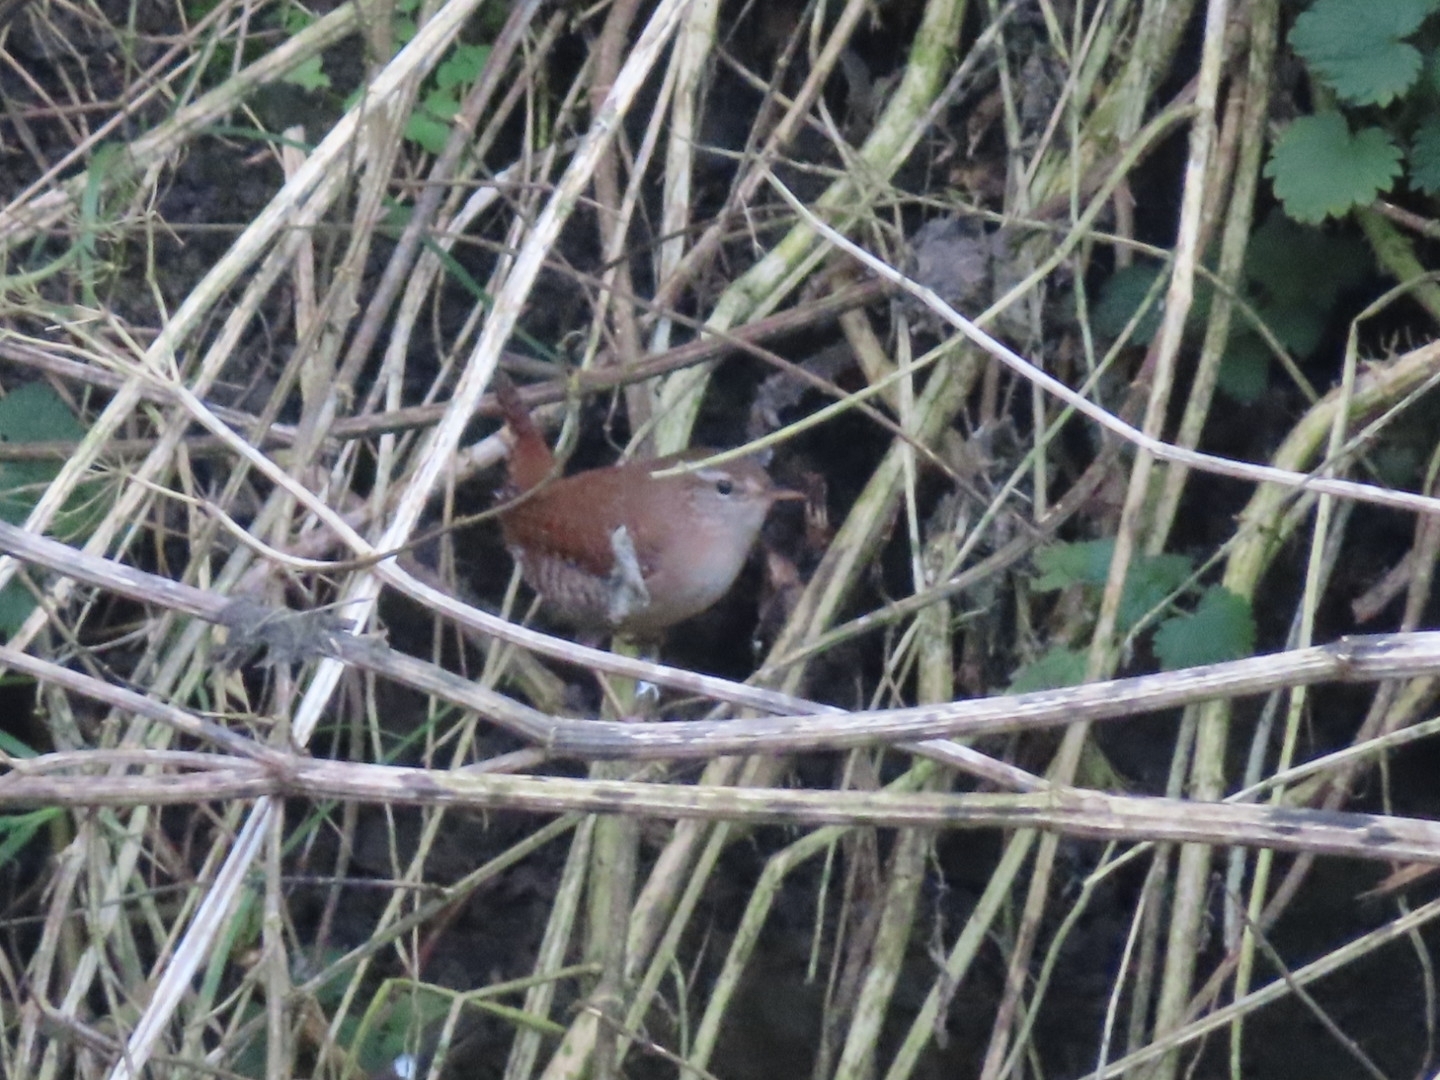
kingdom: Animalia
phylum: Chordata
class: Aves
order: Passeriformes
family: Troglodytidae
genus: Troglodytes
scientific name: Troglodytes troglodytes
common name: Eurasian wren
